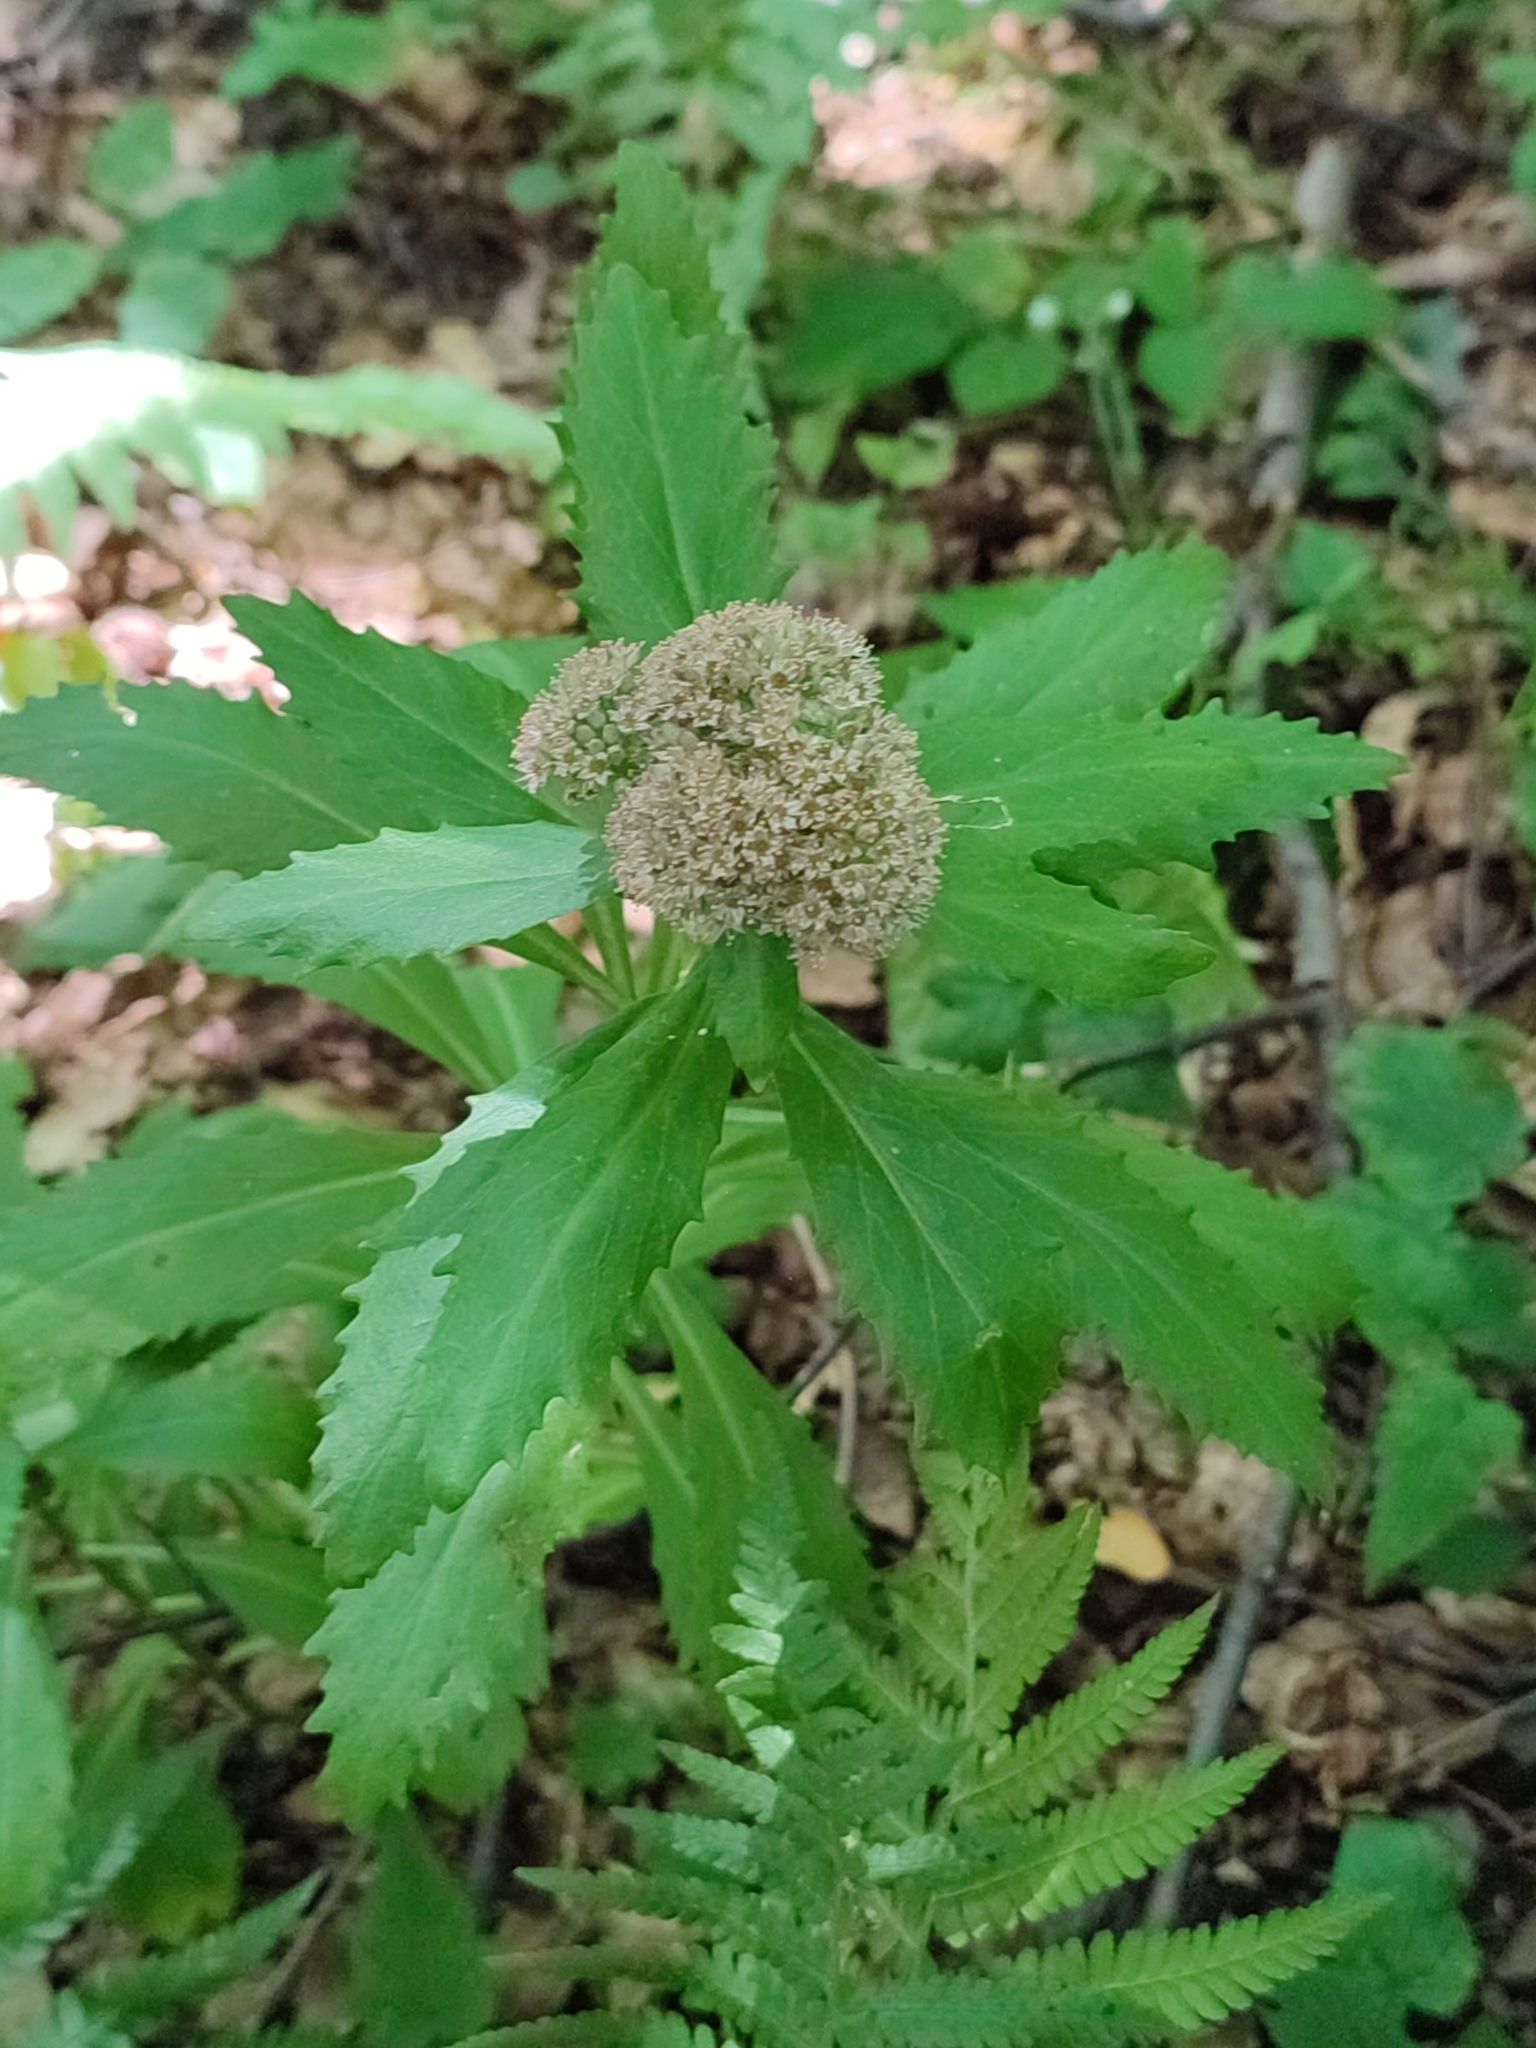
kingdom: Plantae
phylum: Tracheophyta
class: Magnoliopsida
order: Saxifragales
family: Crassulaceae
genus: Hylotelephium
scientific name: Hylotelephium telephium
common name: Live-forever
